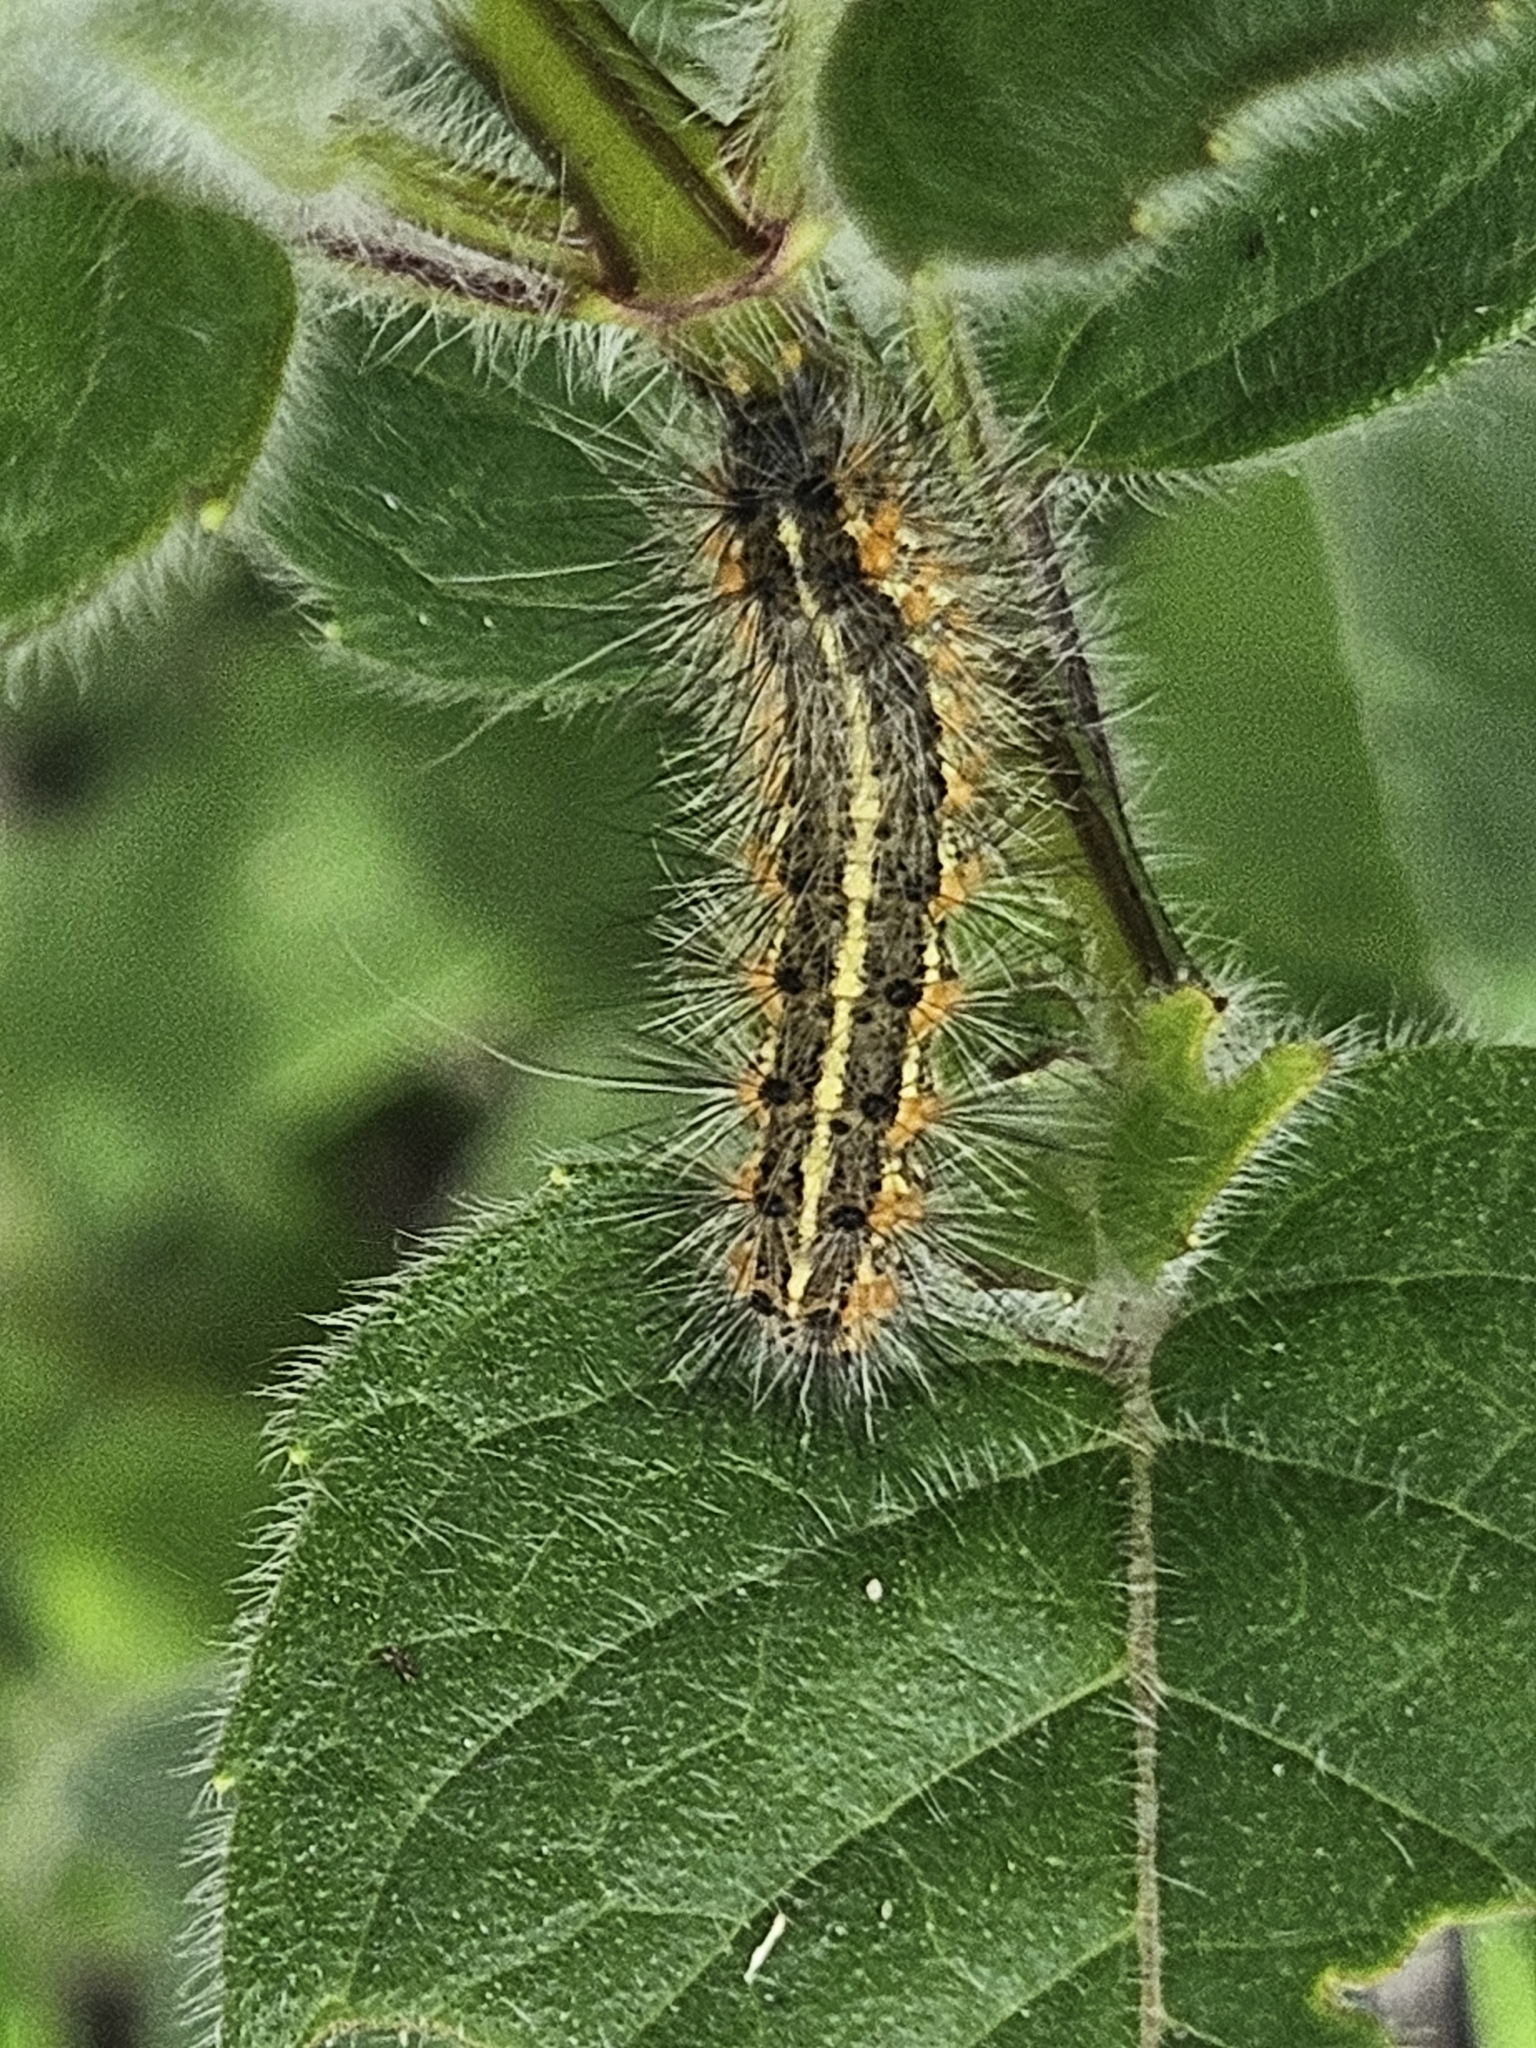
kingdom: Animalia
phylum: Arthropoda
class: Insecta
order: Lepidoptera
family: Erebidae
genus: Estigmene
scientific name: Estigmene acrea
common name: Salt marsh moth
